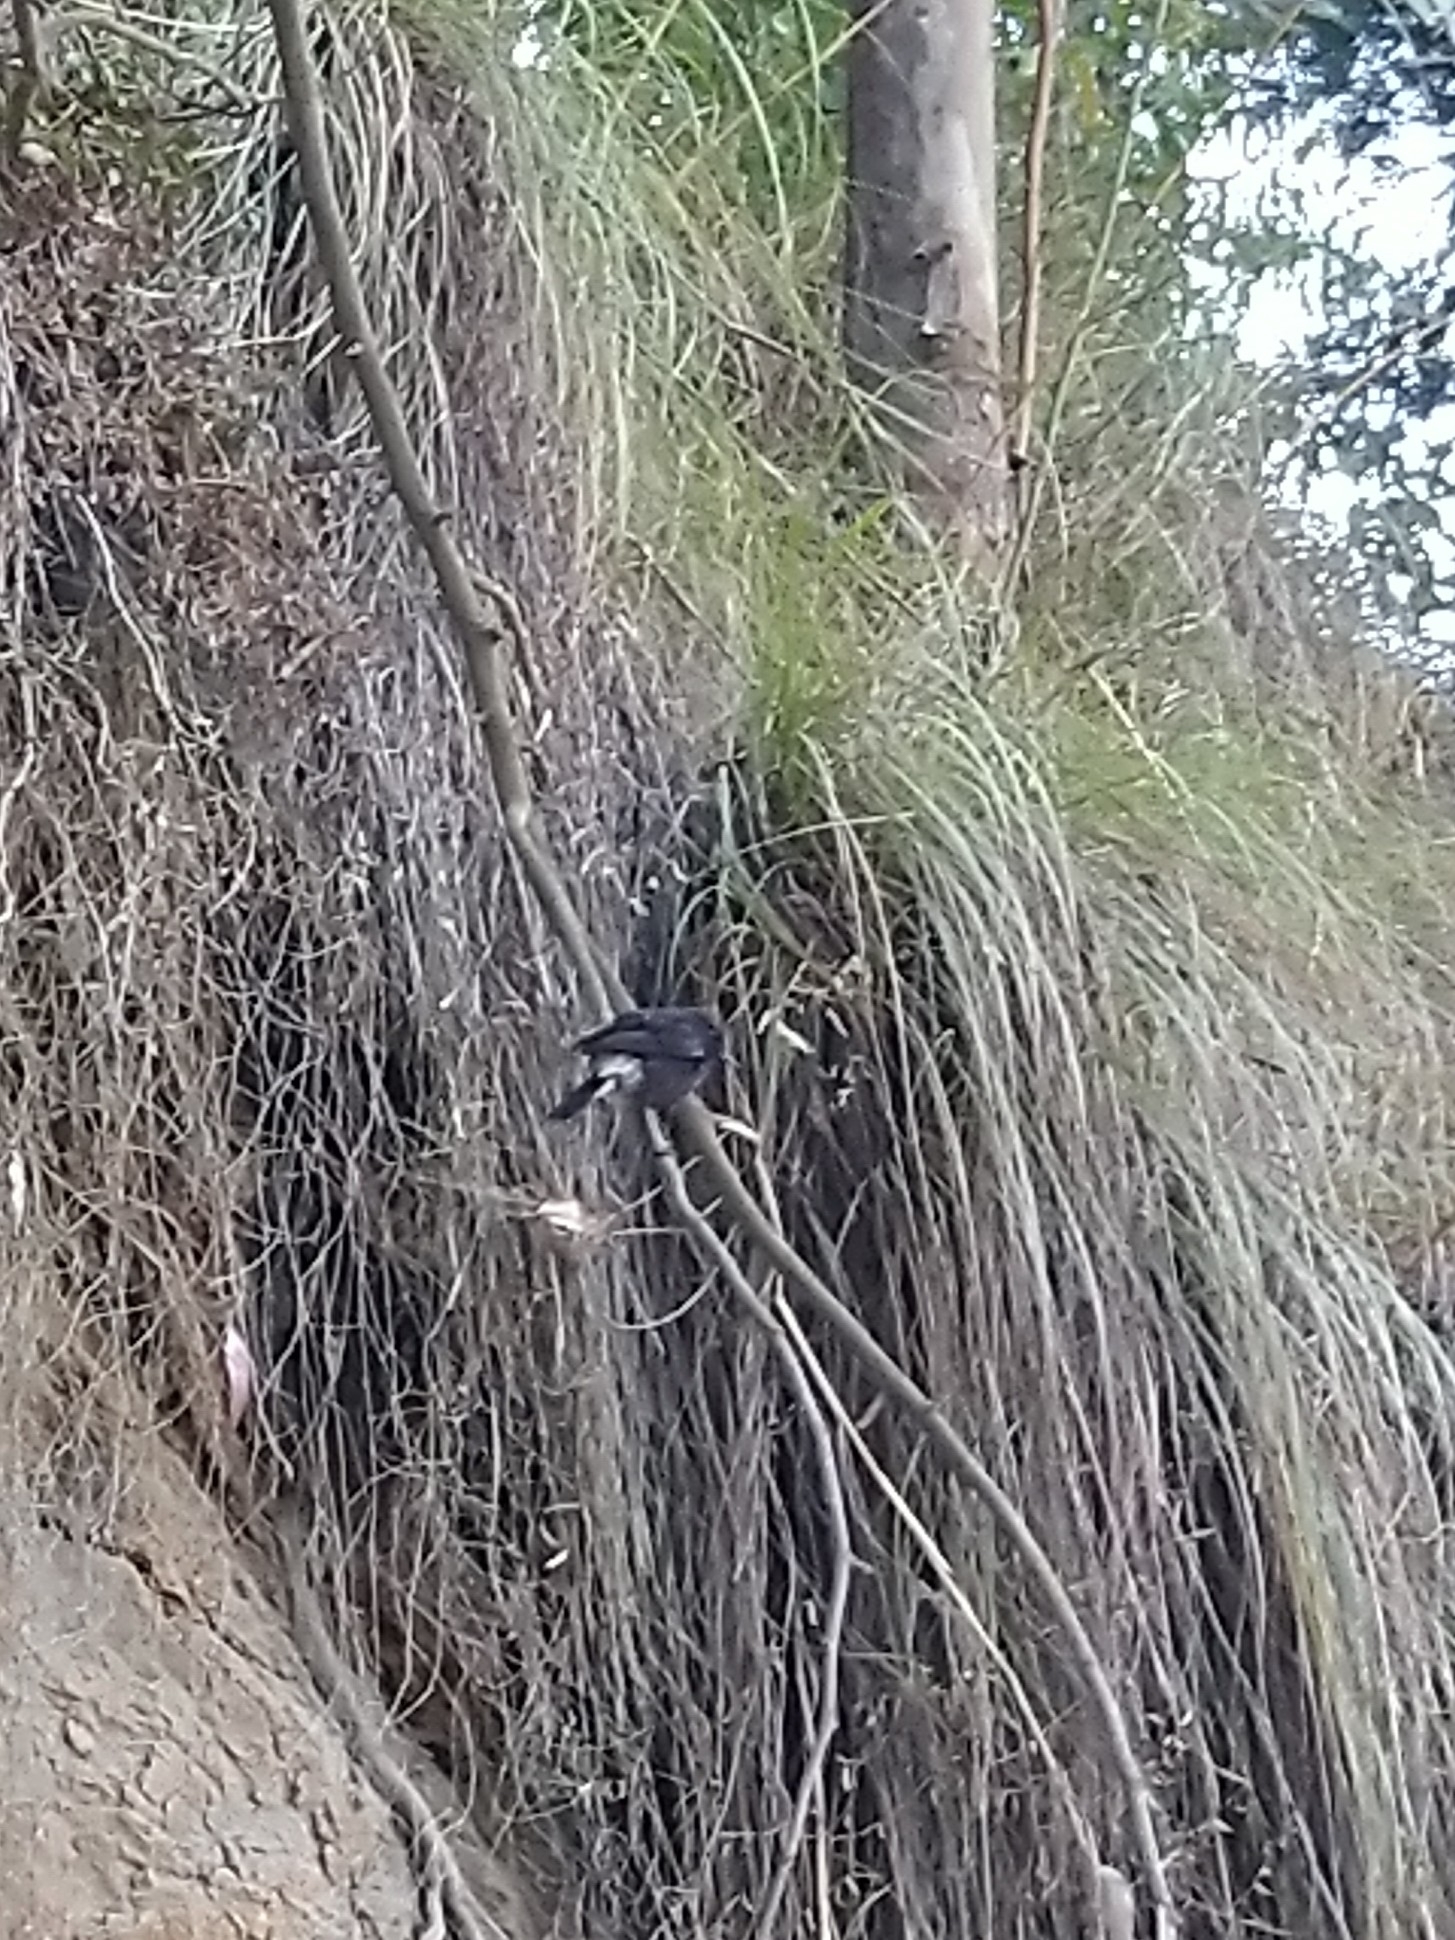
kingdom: Animalia
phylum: Chordata
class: Aves
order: Passeriformes
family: Muscicapidae
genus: Saxicola
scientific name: Saxicola caprata
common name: Pied bush chat
